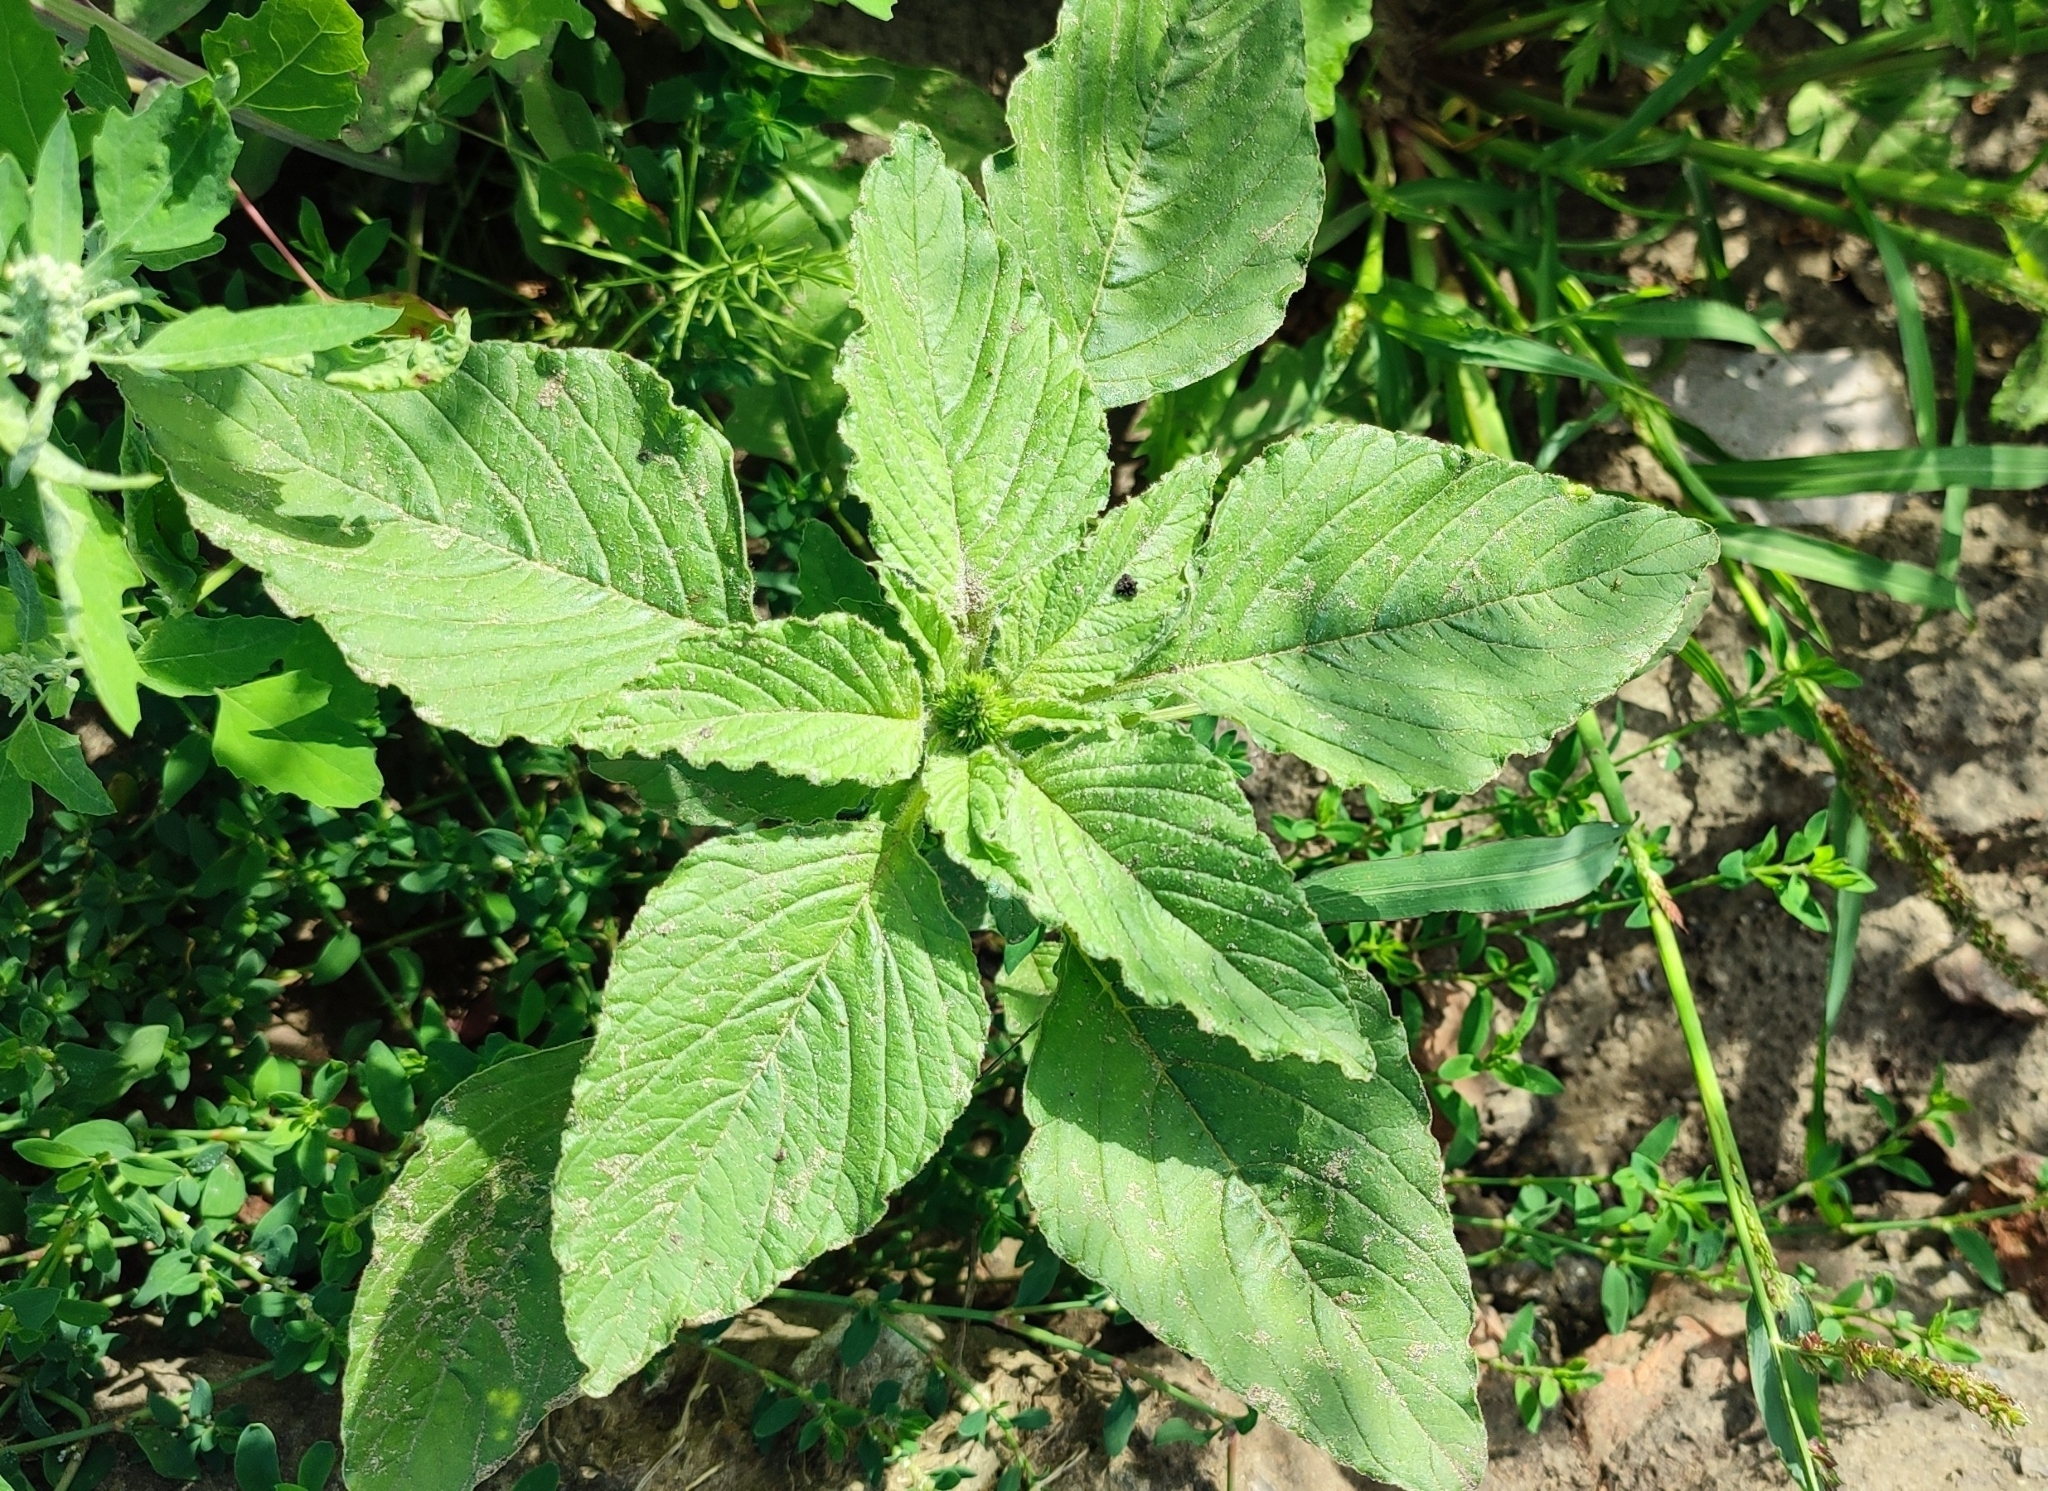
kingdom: Plantae
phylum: Tracheophyta
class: Magnoliopsida
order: Caryophyllales
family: Amaranthaceae
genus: Amaranthus
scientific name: Amaranthus retroflexus
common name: Redroot amaranth
